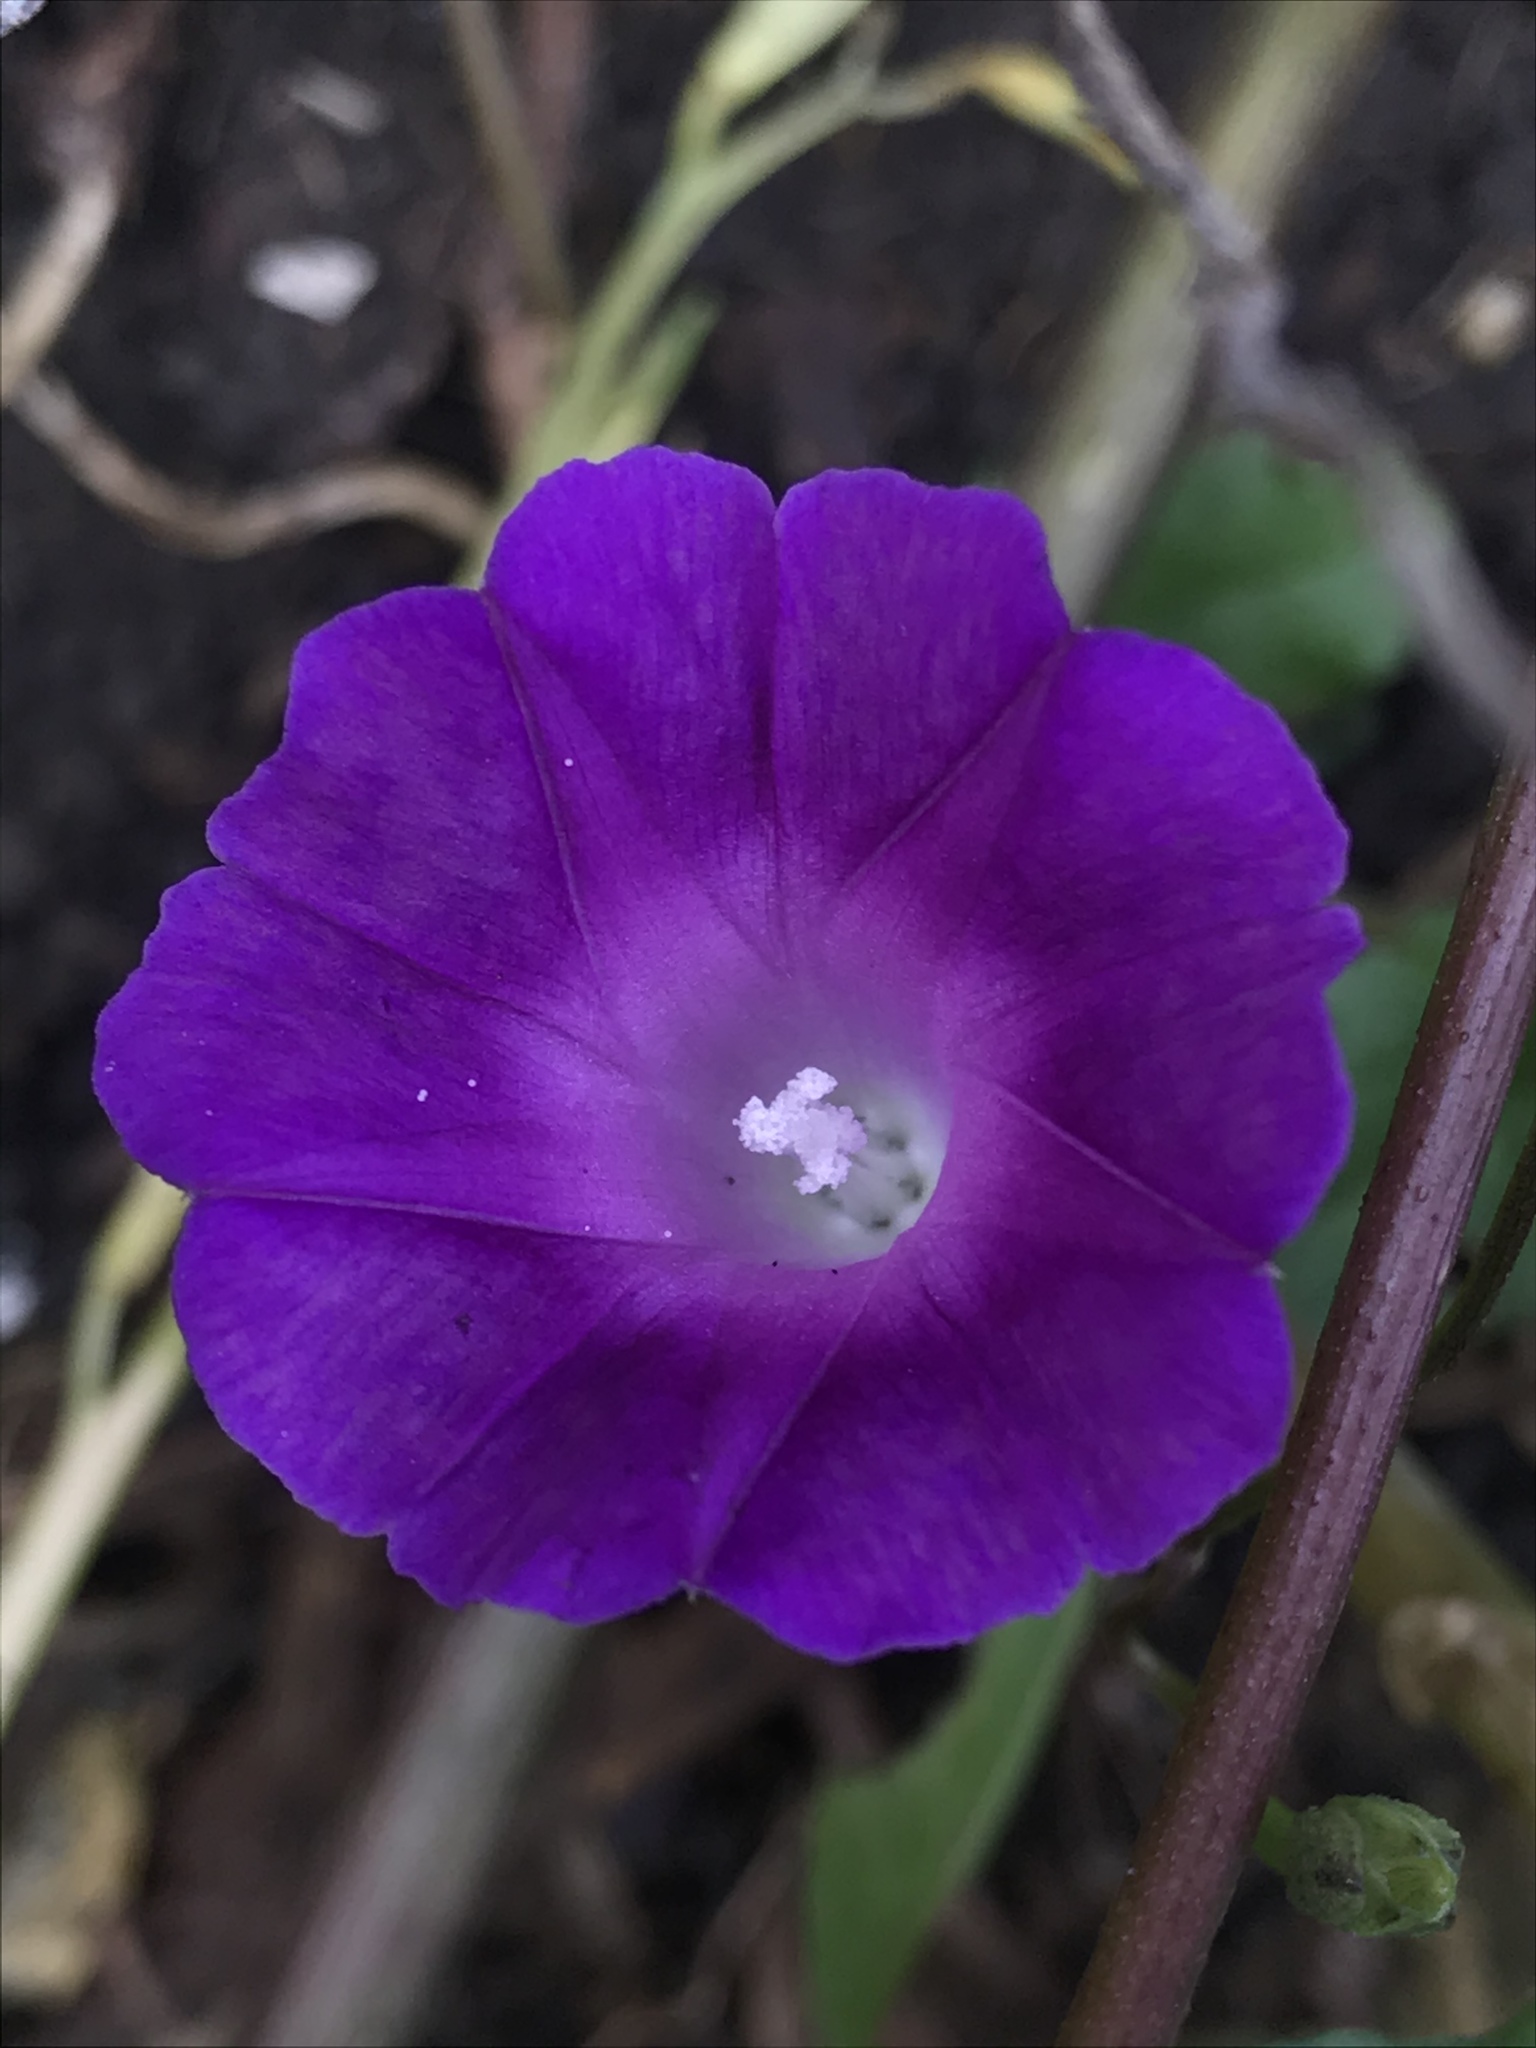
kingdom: Plantae
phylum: Tracheophyta
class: Magnoliopsida
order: Solanales
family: Convolvulaceae
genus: Ipomoea
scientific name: Ipomoea dumetorum
